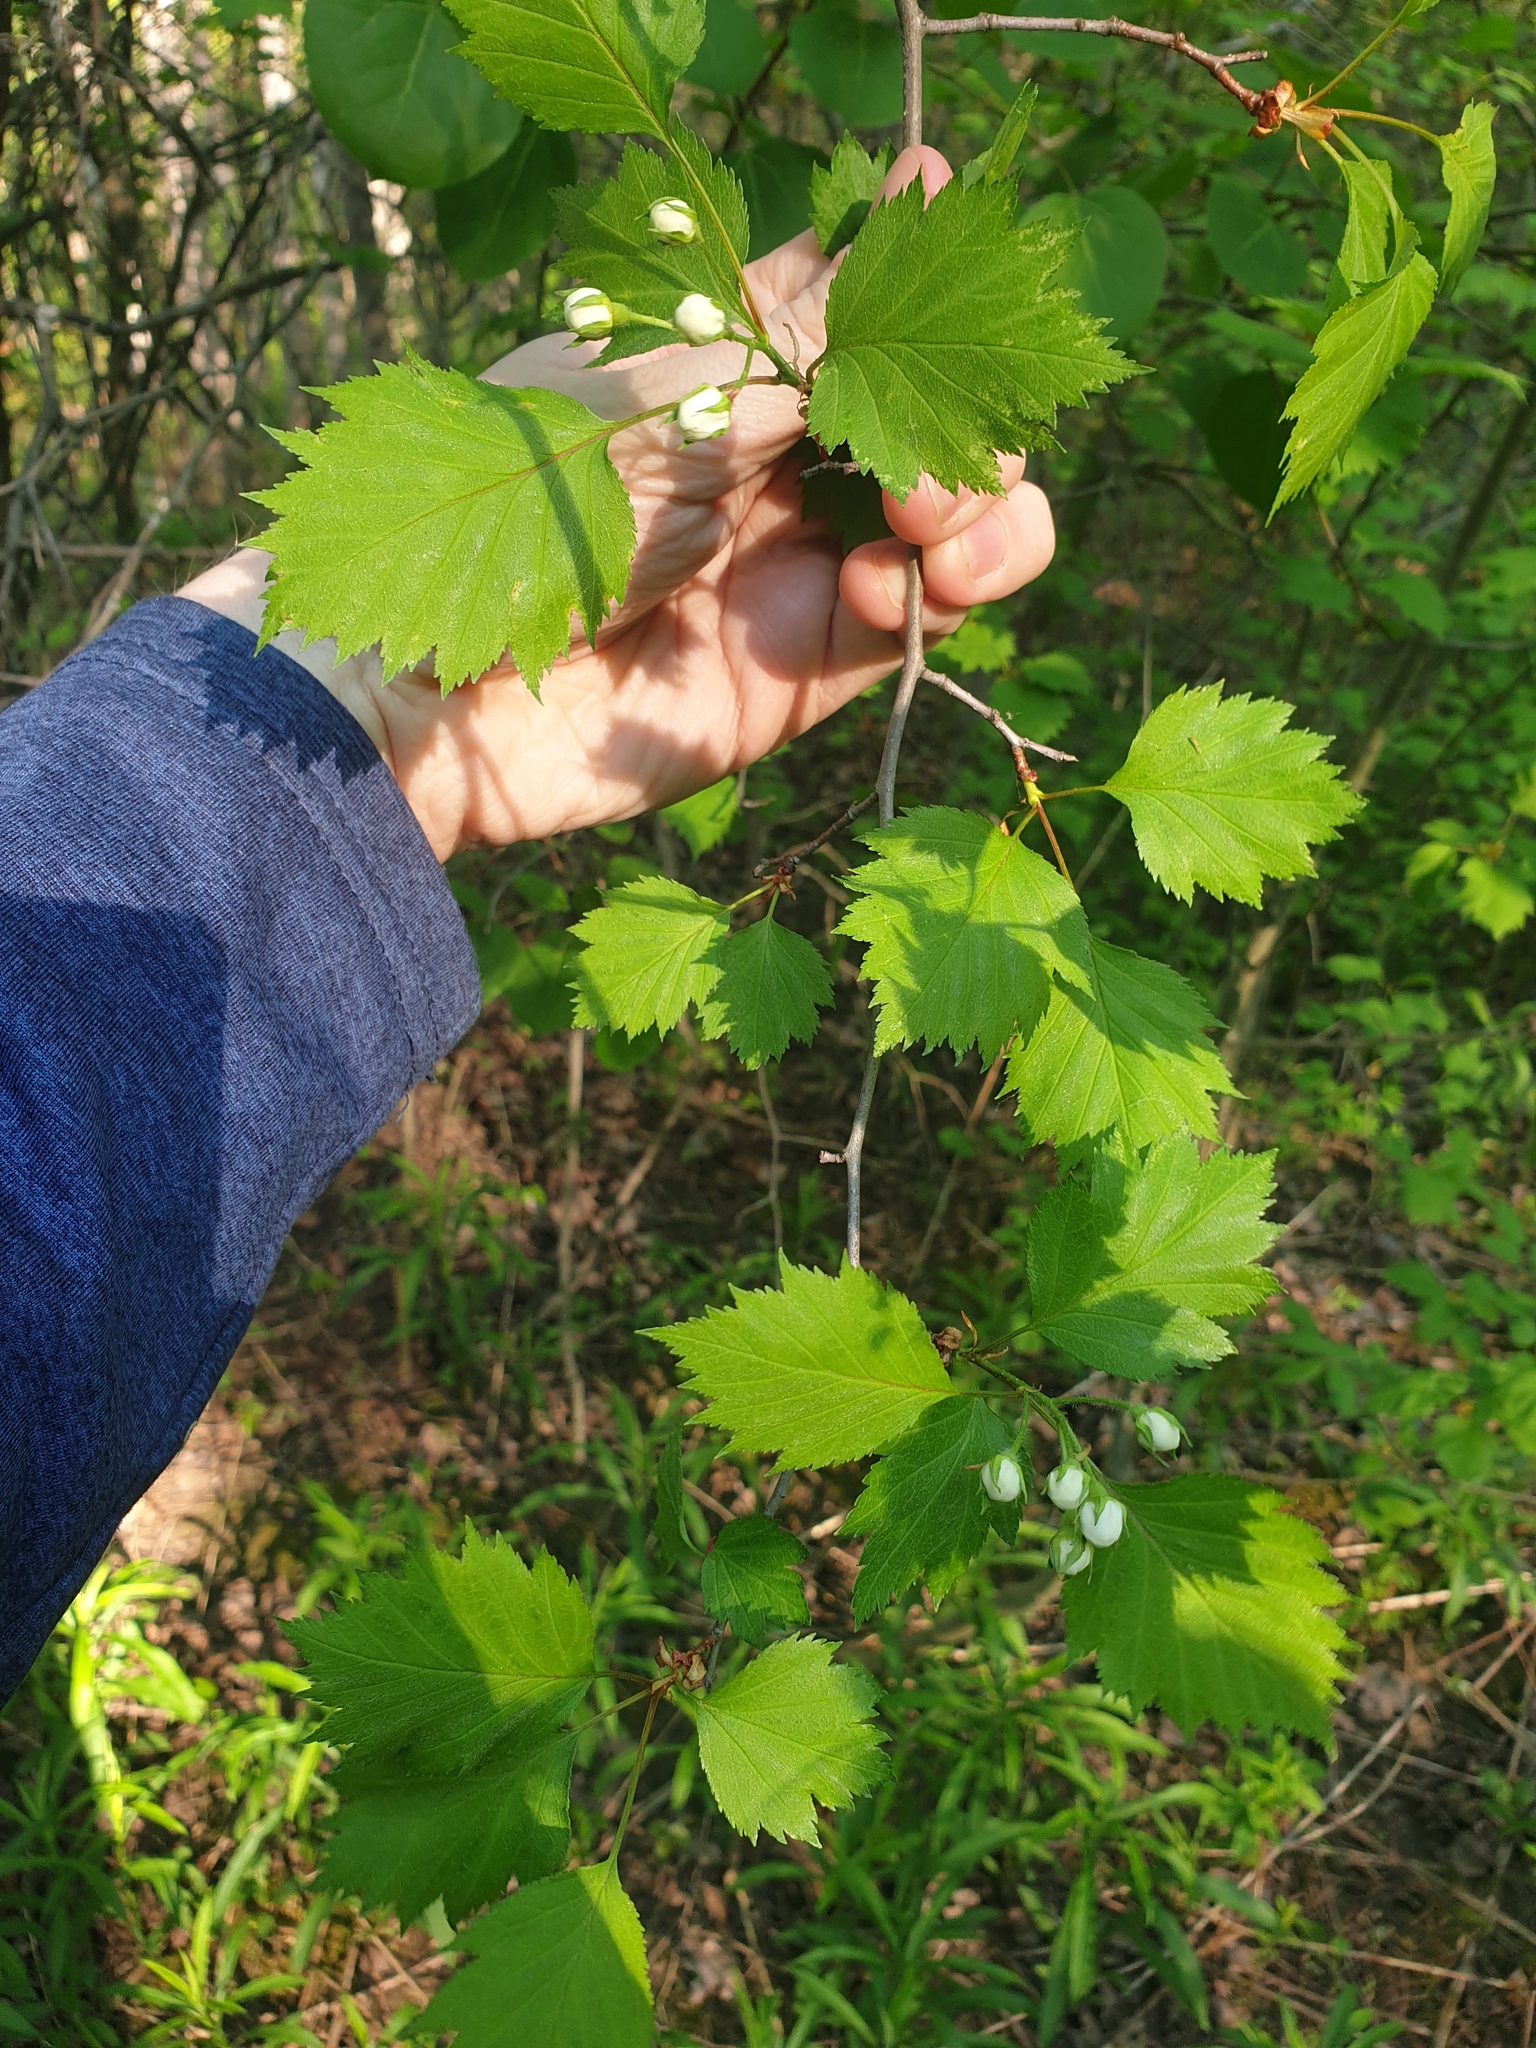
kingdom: Plantae
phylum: Tracheophyta
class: Magnoliopsida
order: Rosales
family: Rosaceae
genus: Crataegus
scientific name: Crataegus flabellata
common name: Bosc's hawthorn
